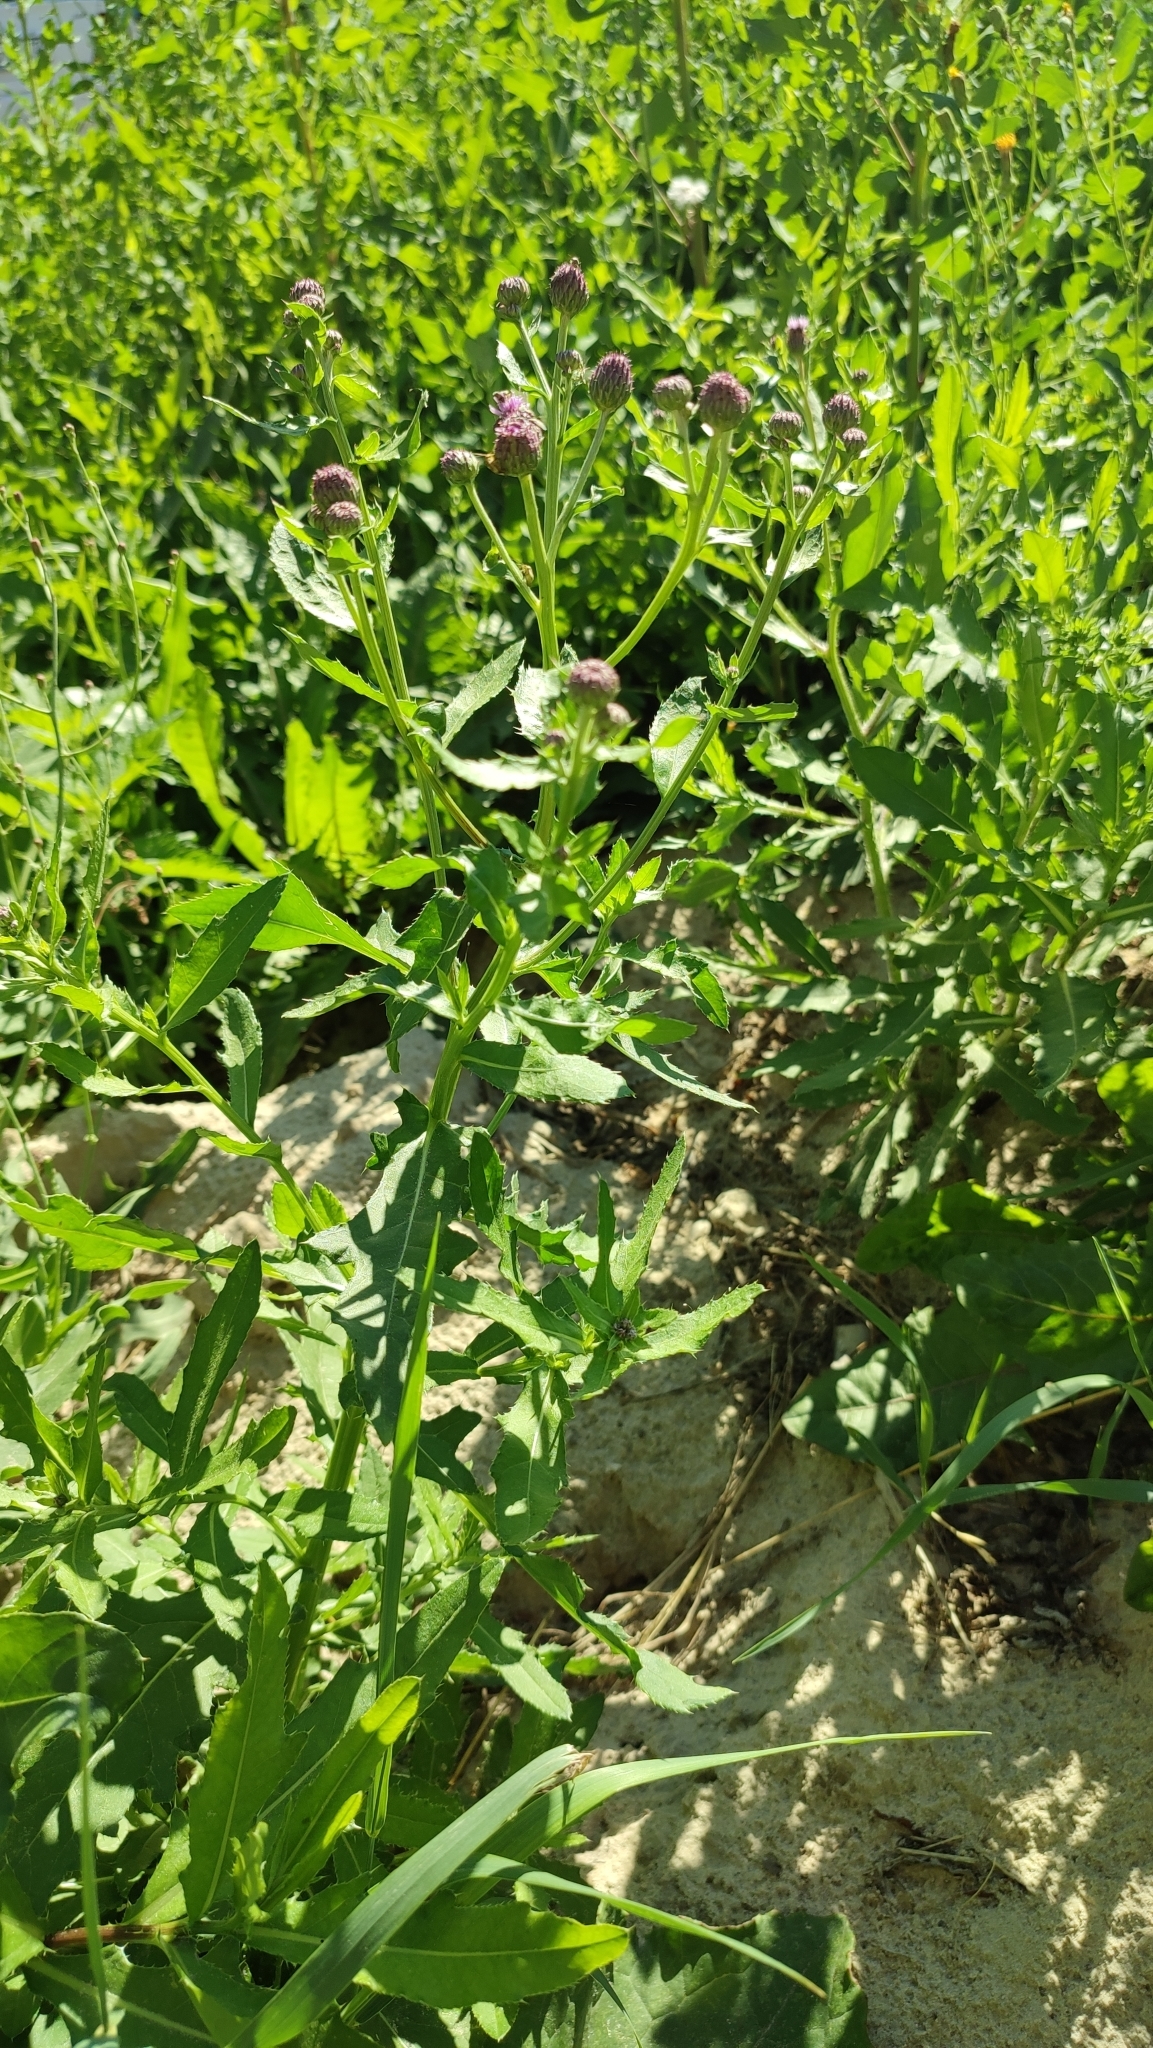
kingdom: Plantae
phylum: Tracheophyta
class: Magnoliopsida
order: Asterales
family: Asteraceae
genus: Cirsium
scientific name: Cirsium arvense
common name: Creeping thistle
